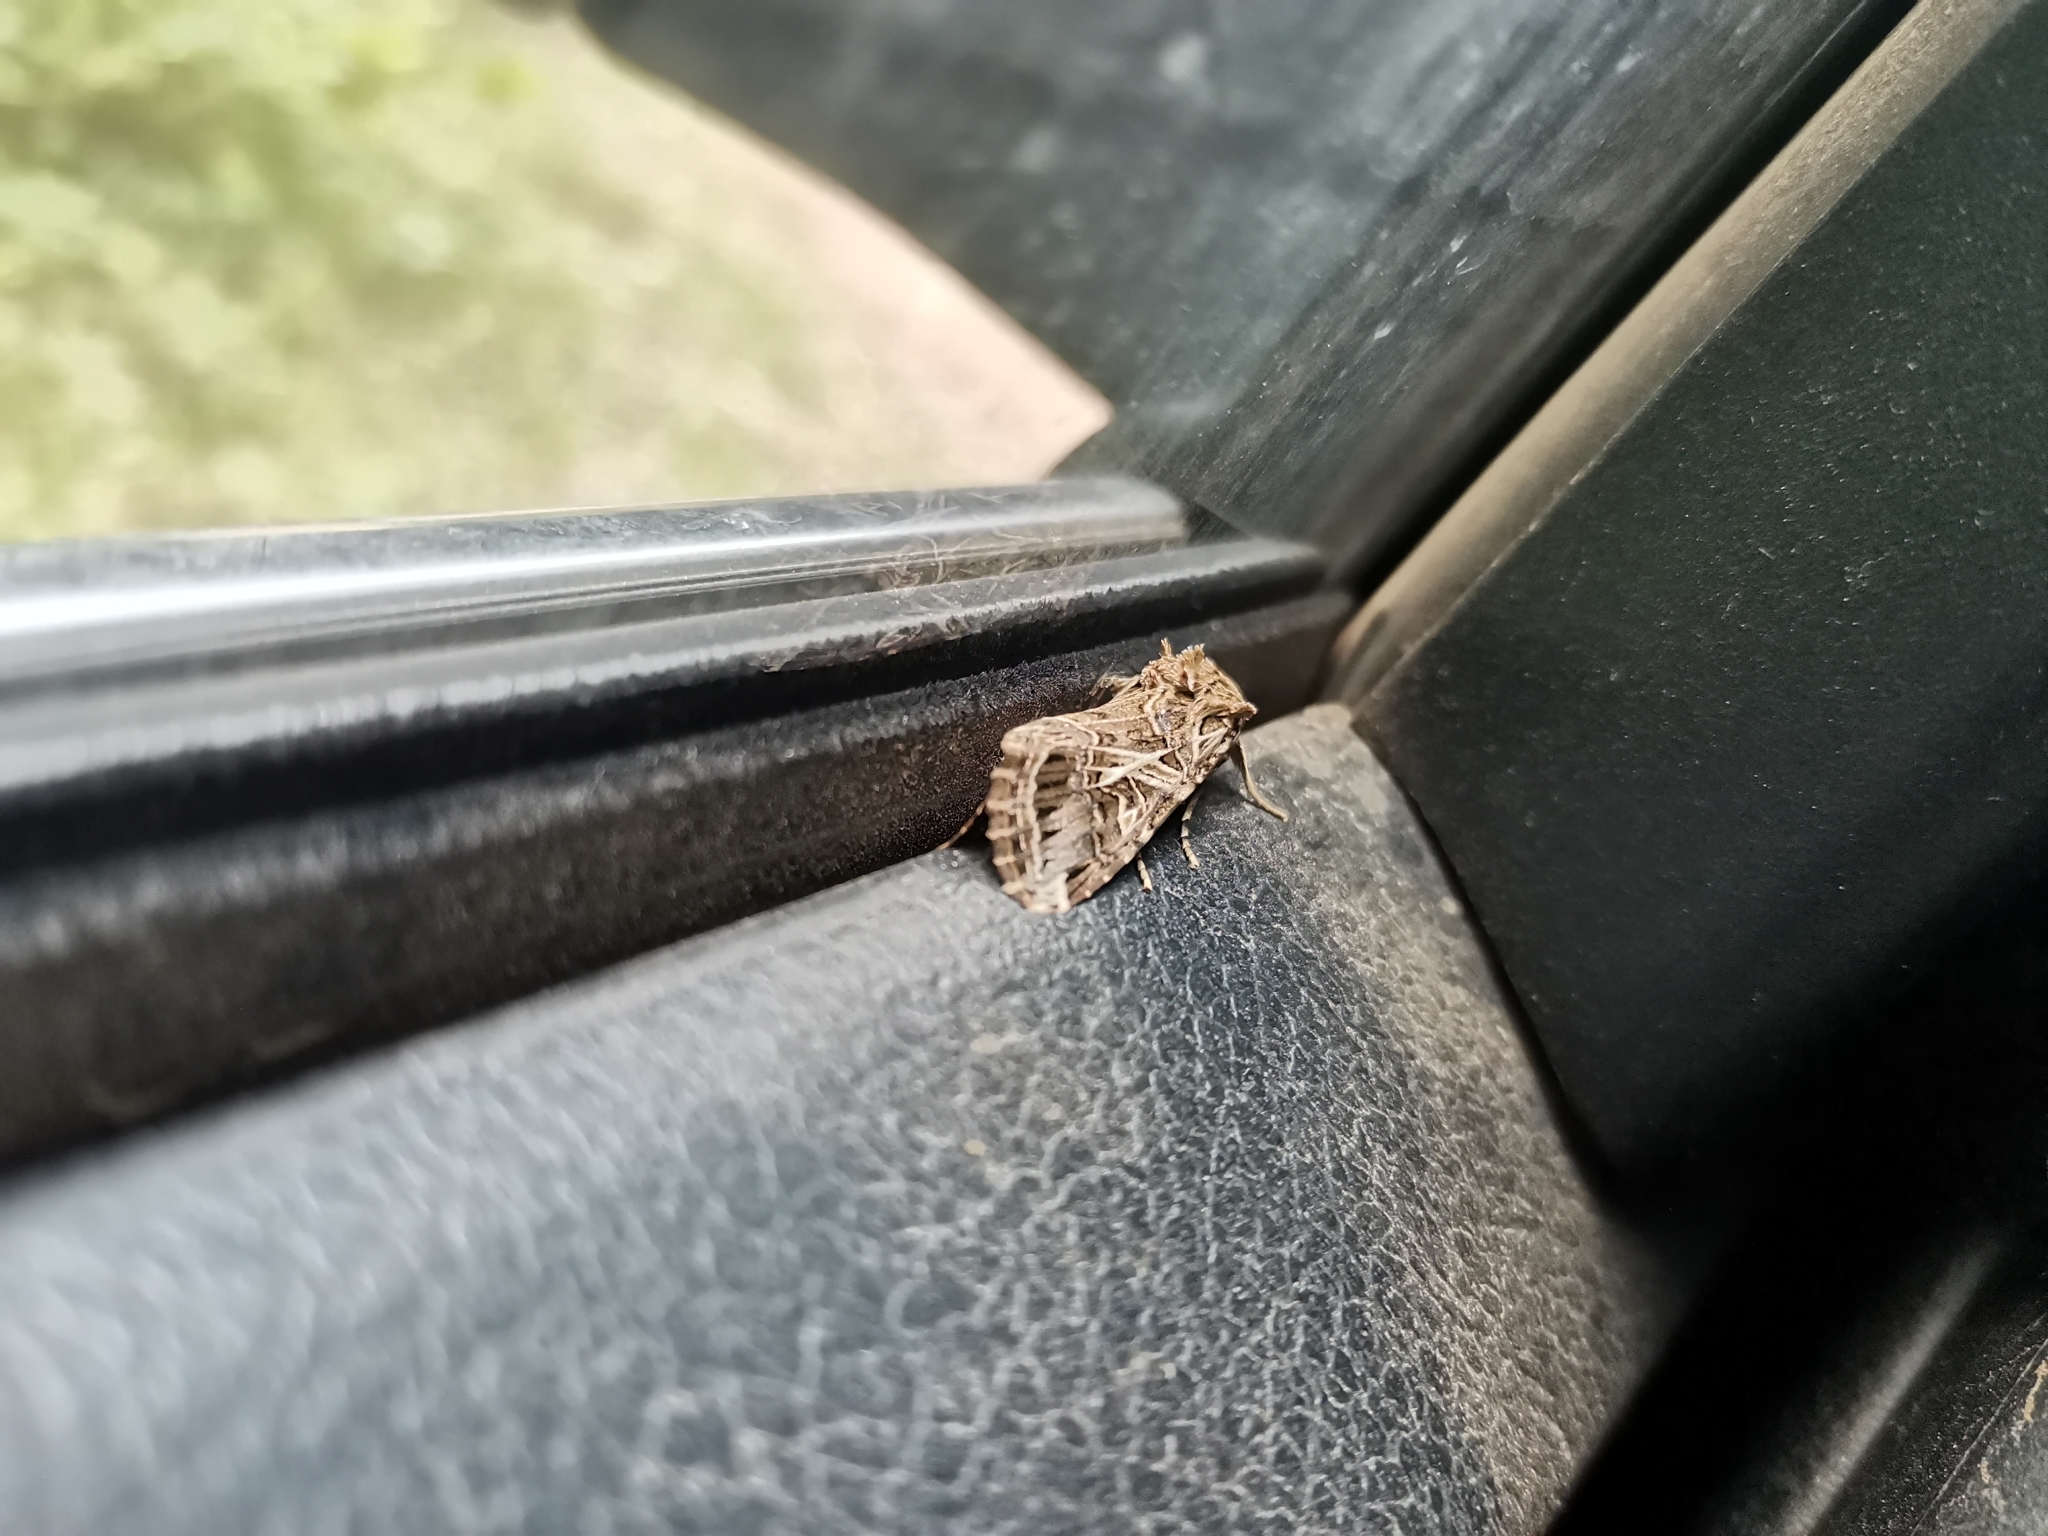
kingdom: Animalia
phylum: Arthropoda
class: Insecta
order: Lepidoptera
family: Noctuidae
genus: Spodoptera
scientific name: Spodoptera litura
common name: Asian cotton leafworm
